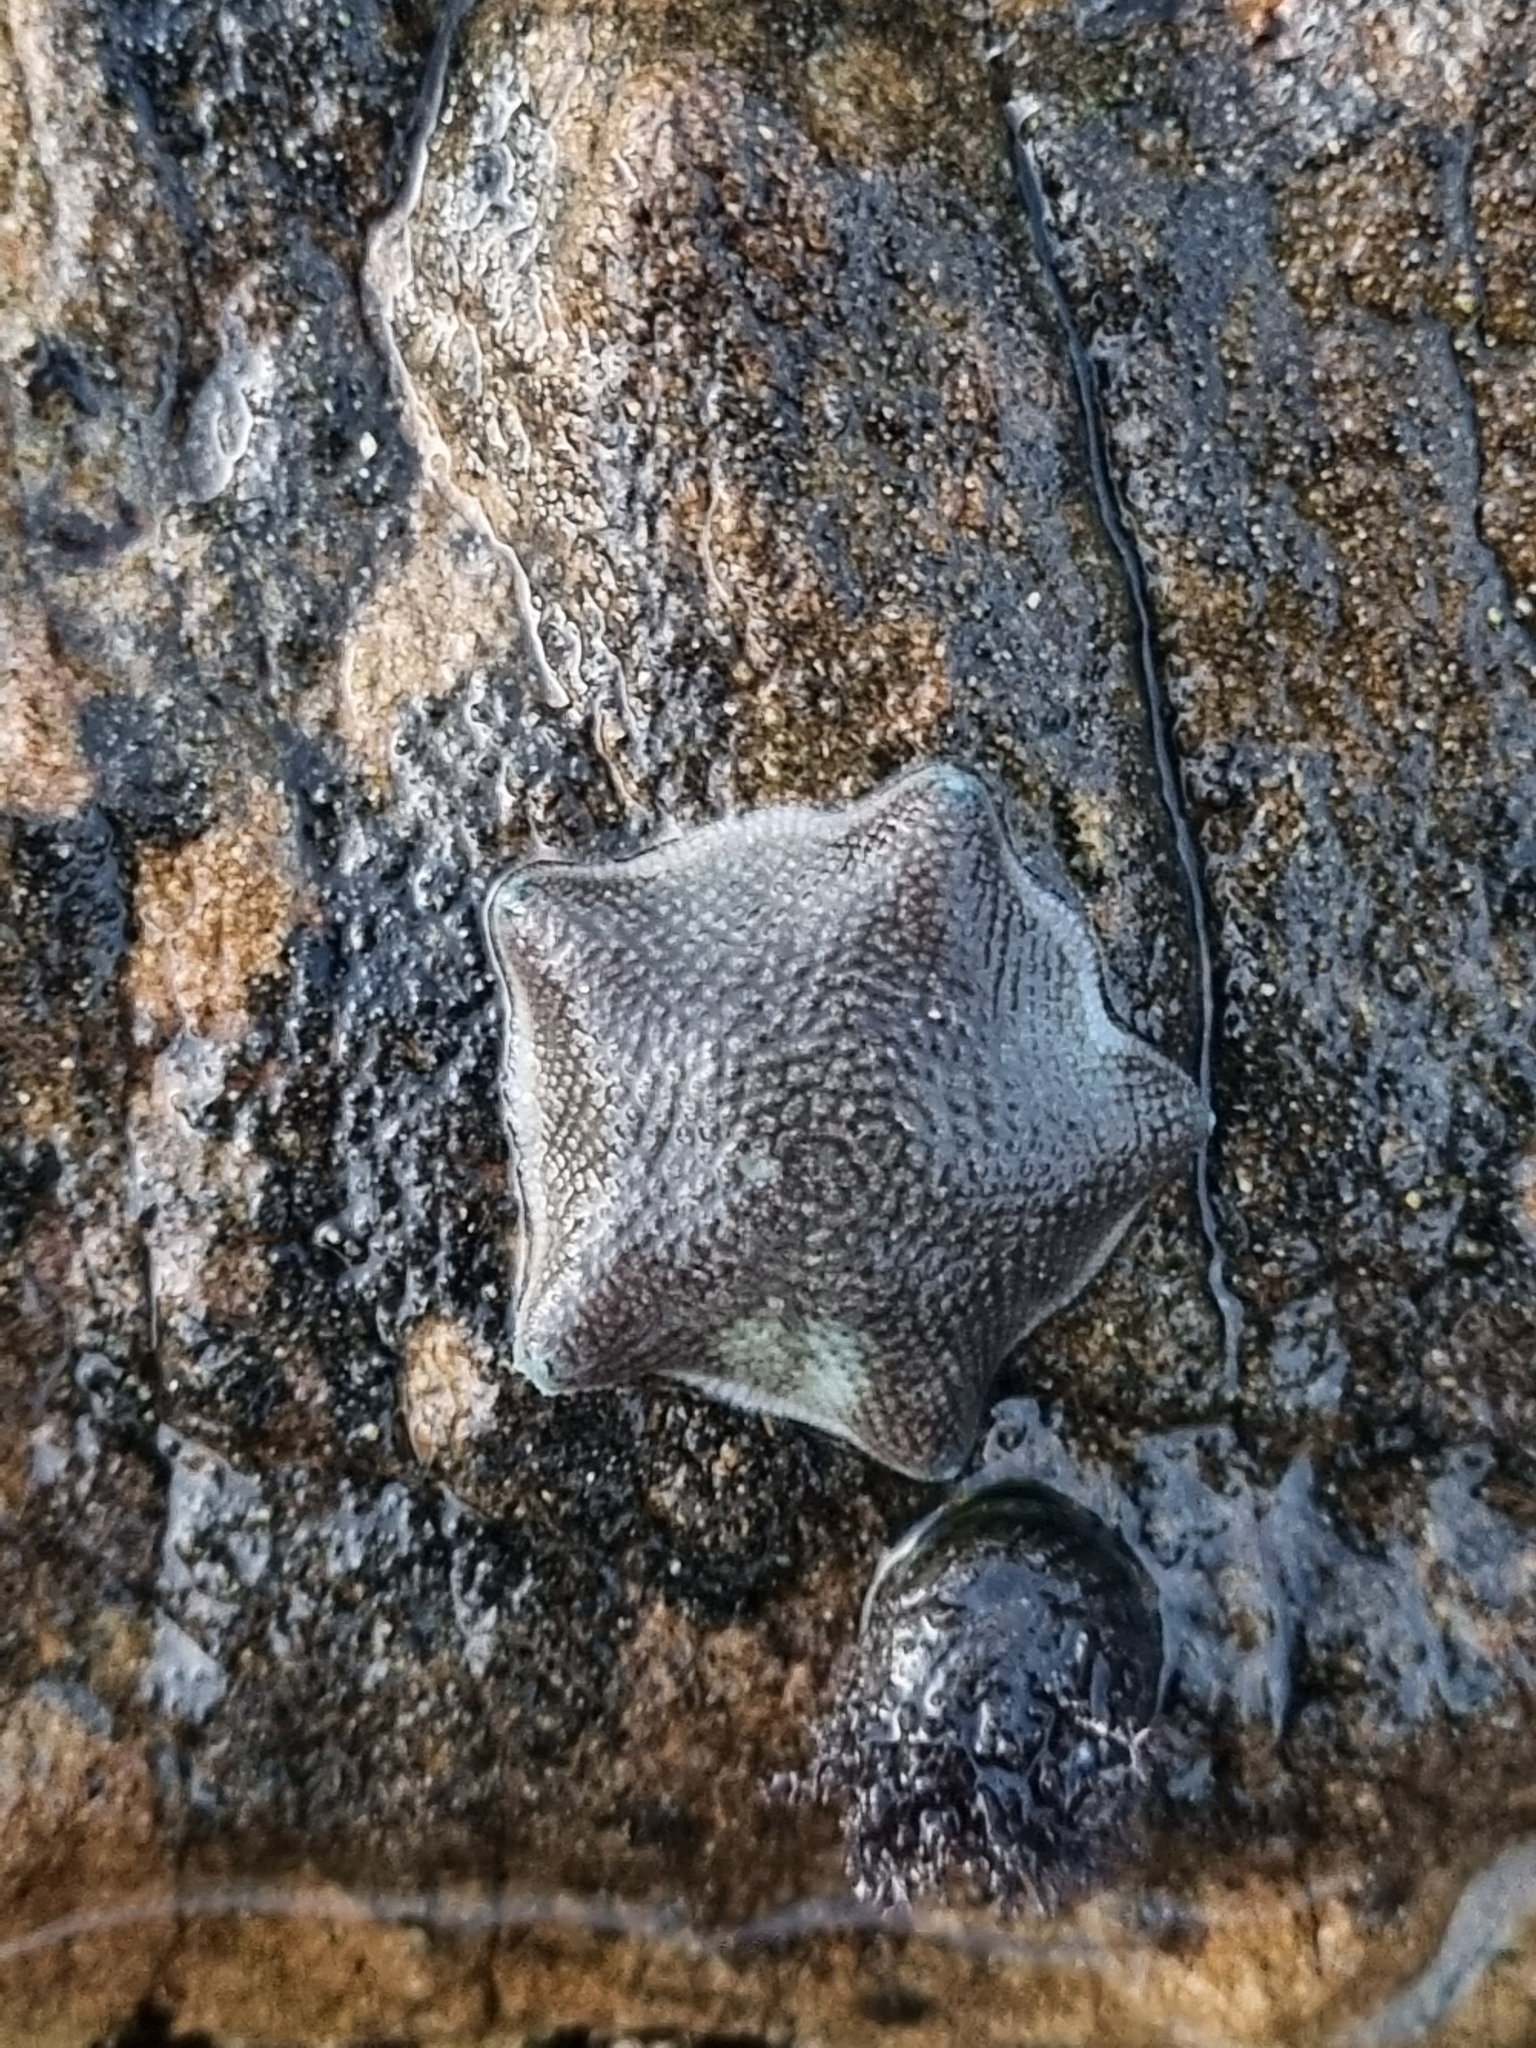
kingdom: Animalia
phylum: Echinodermata
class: Asteroidea
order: Valvatida
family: Asterinidae
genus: Patiriella
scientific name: Patiriella regularis
